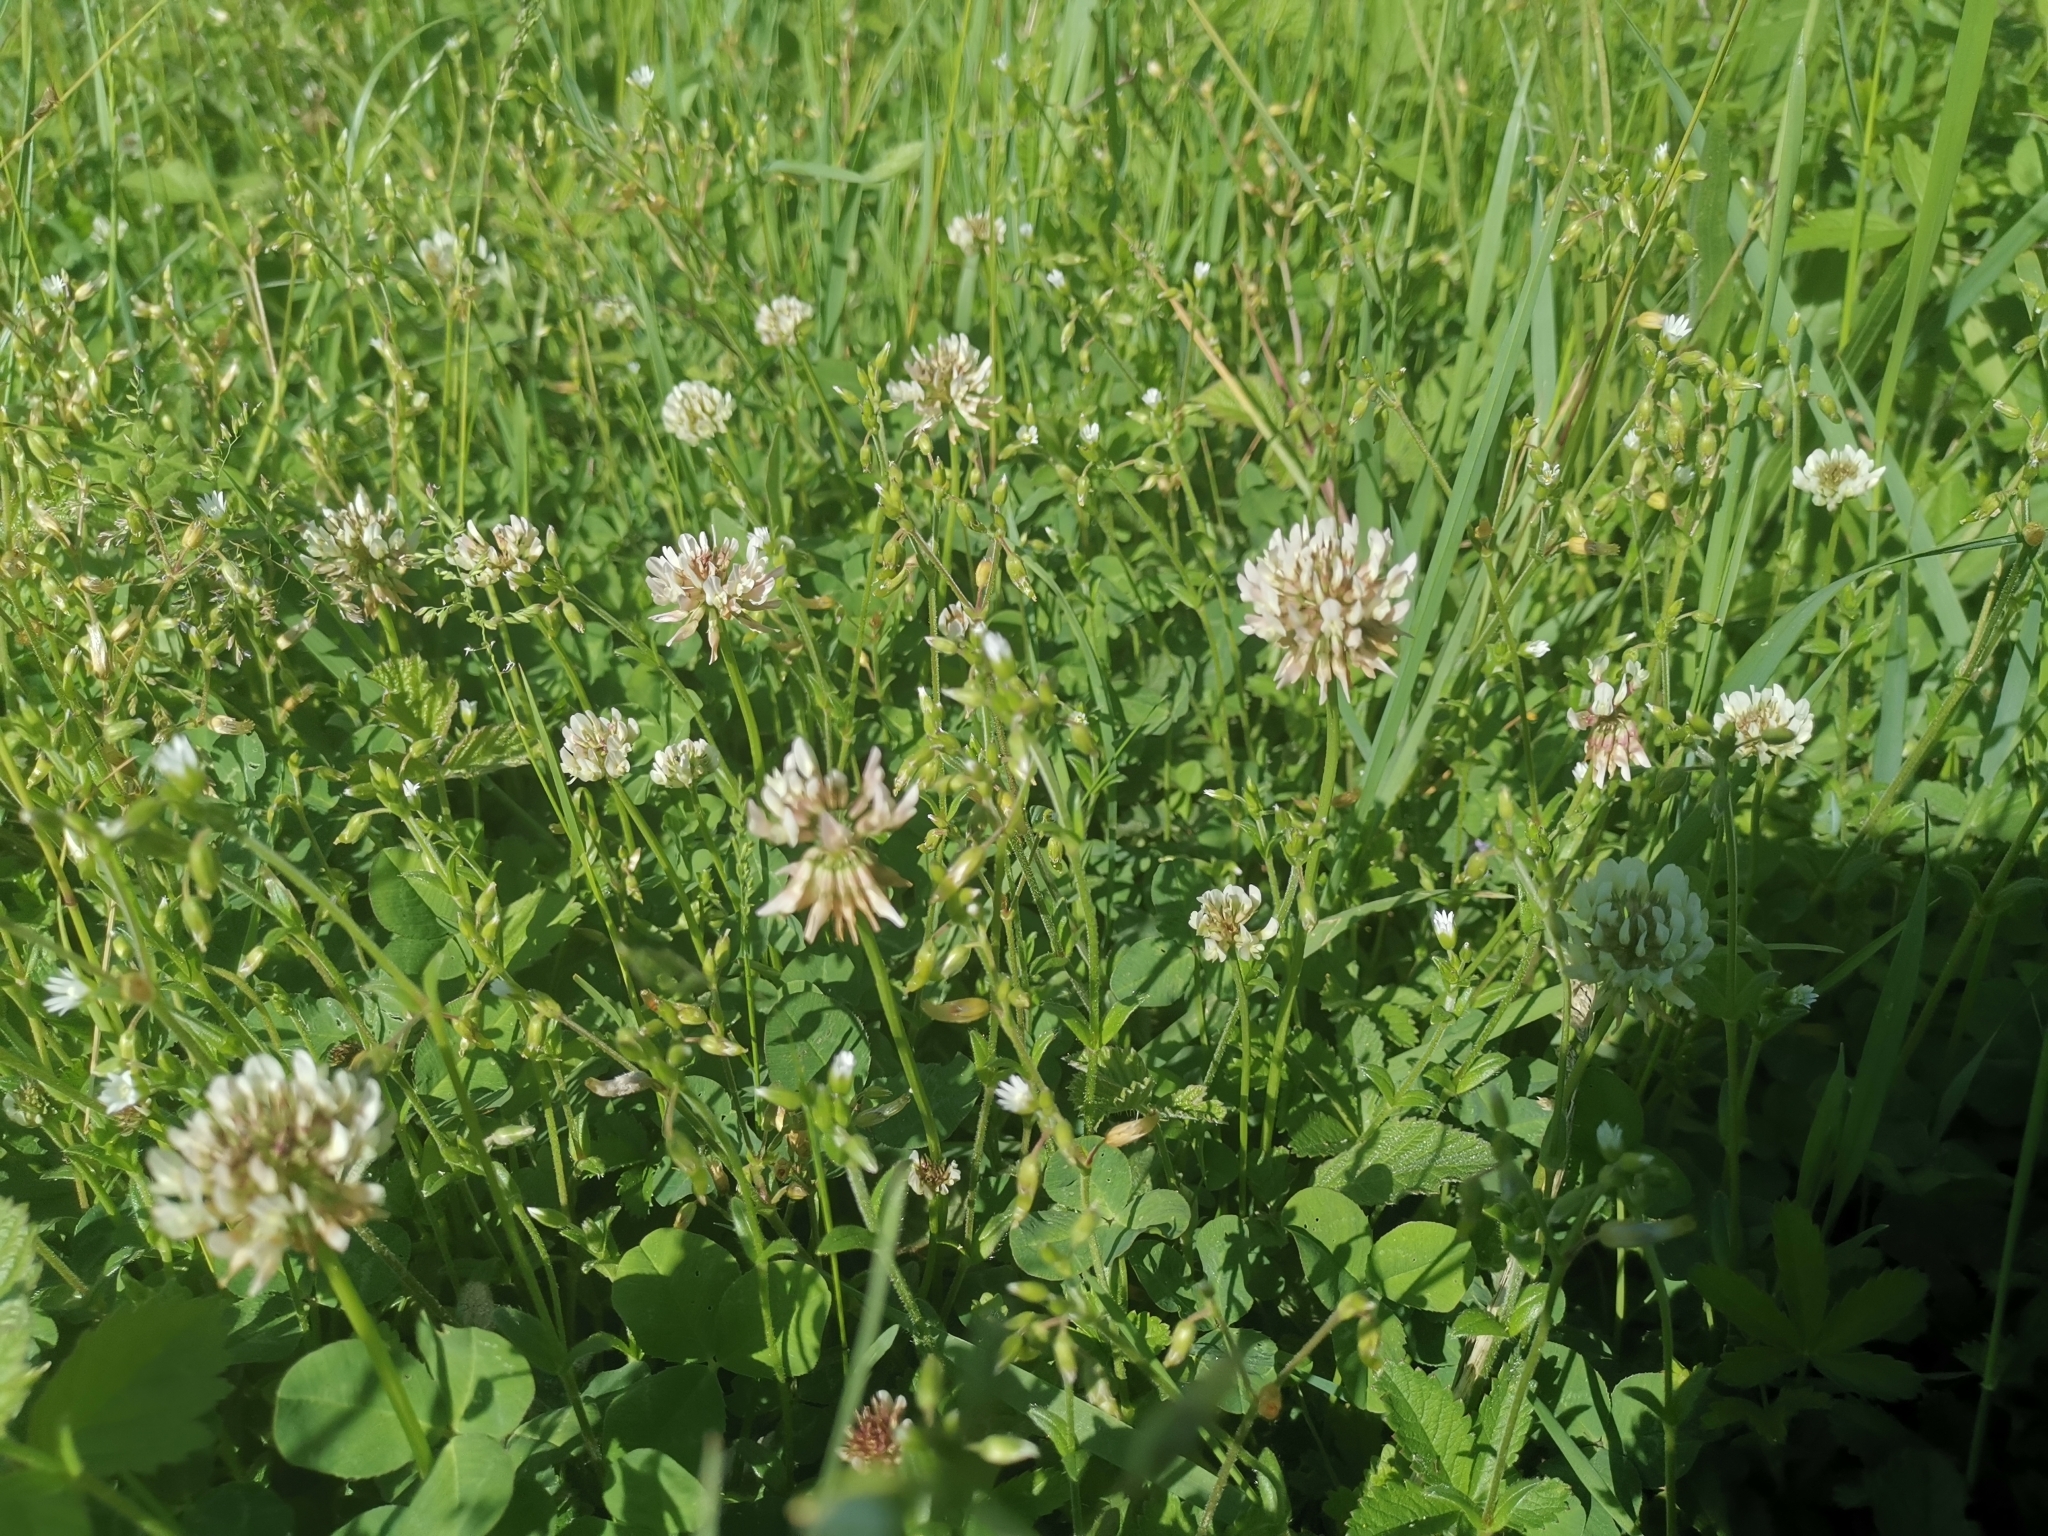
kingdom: Plantae
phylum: Tracheophyta
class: Magnoliopsida
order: Fabales
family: Fabaceae
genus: Trifolium
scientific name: Trifolium repens
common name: White clover
